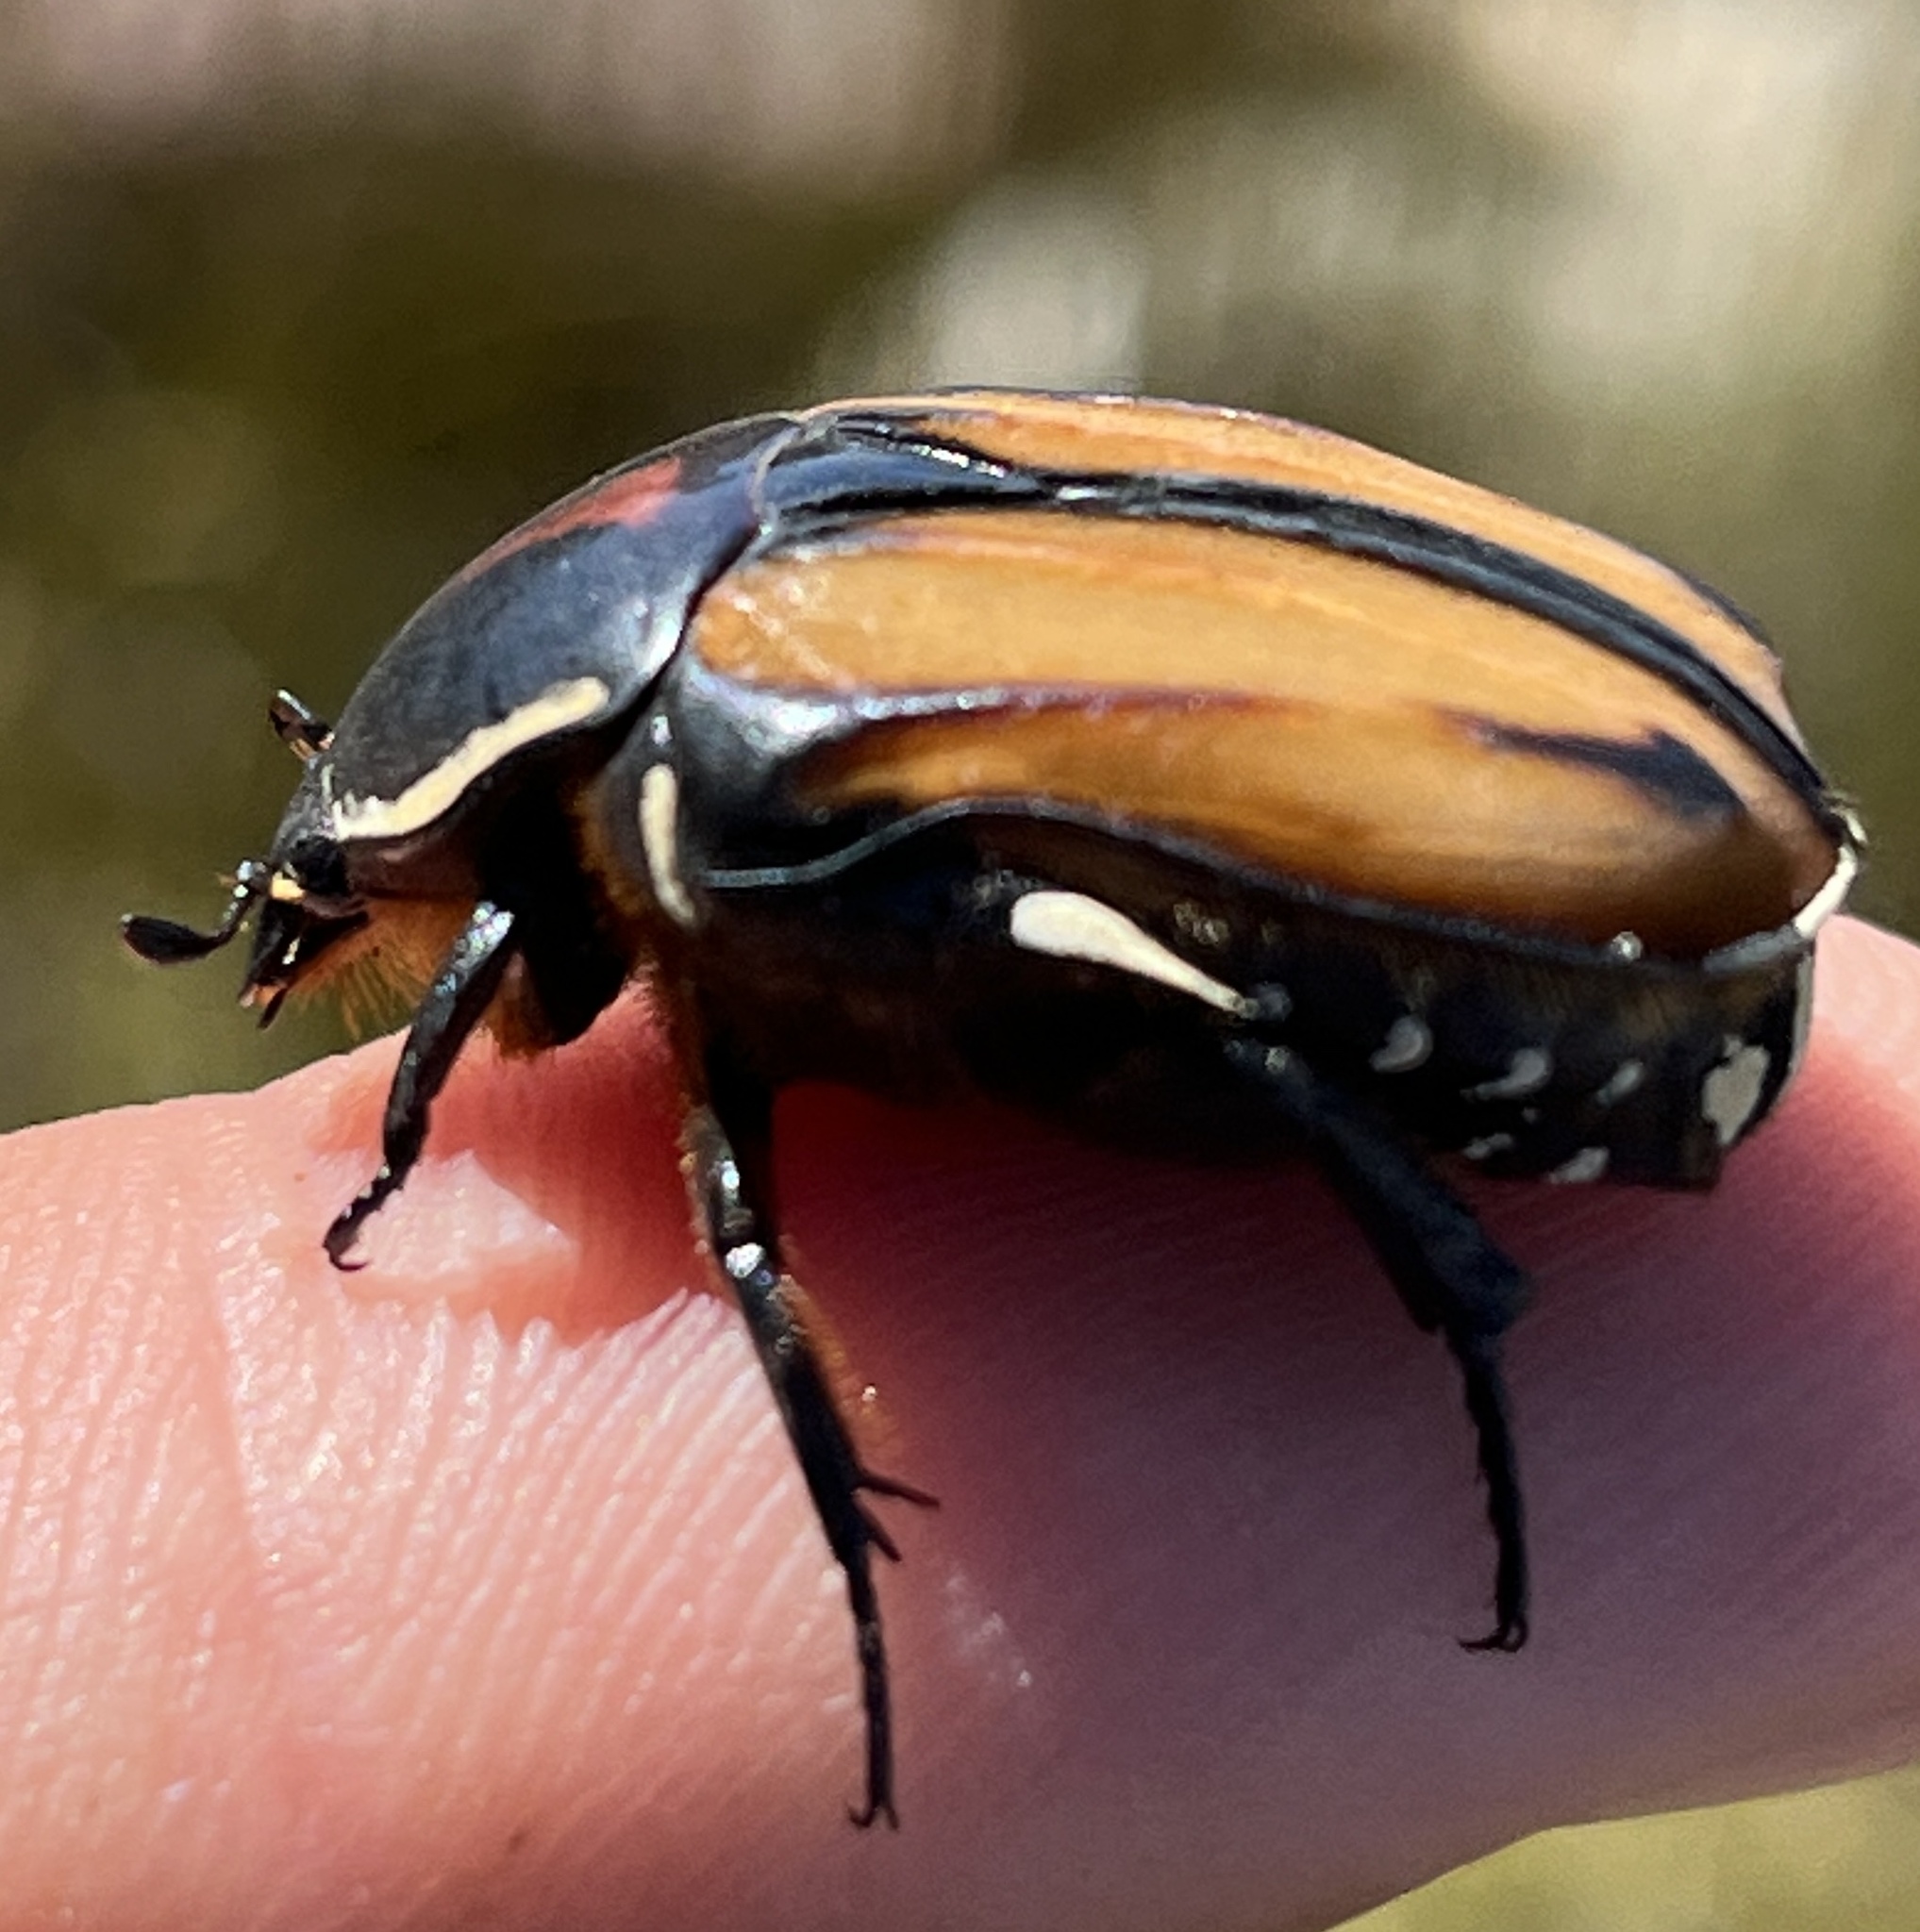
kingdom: Animalia
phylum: Arthropoda
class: Insecta
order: Coleoptera
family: Scarabaeidae
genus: Trichostetha
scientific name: Trichostetha signata
